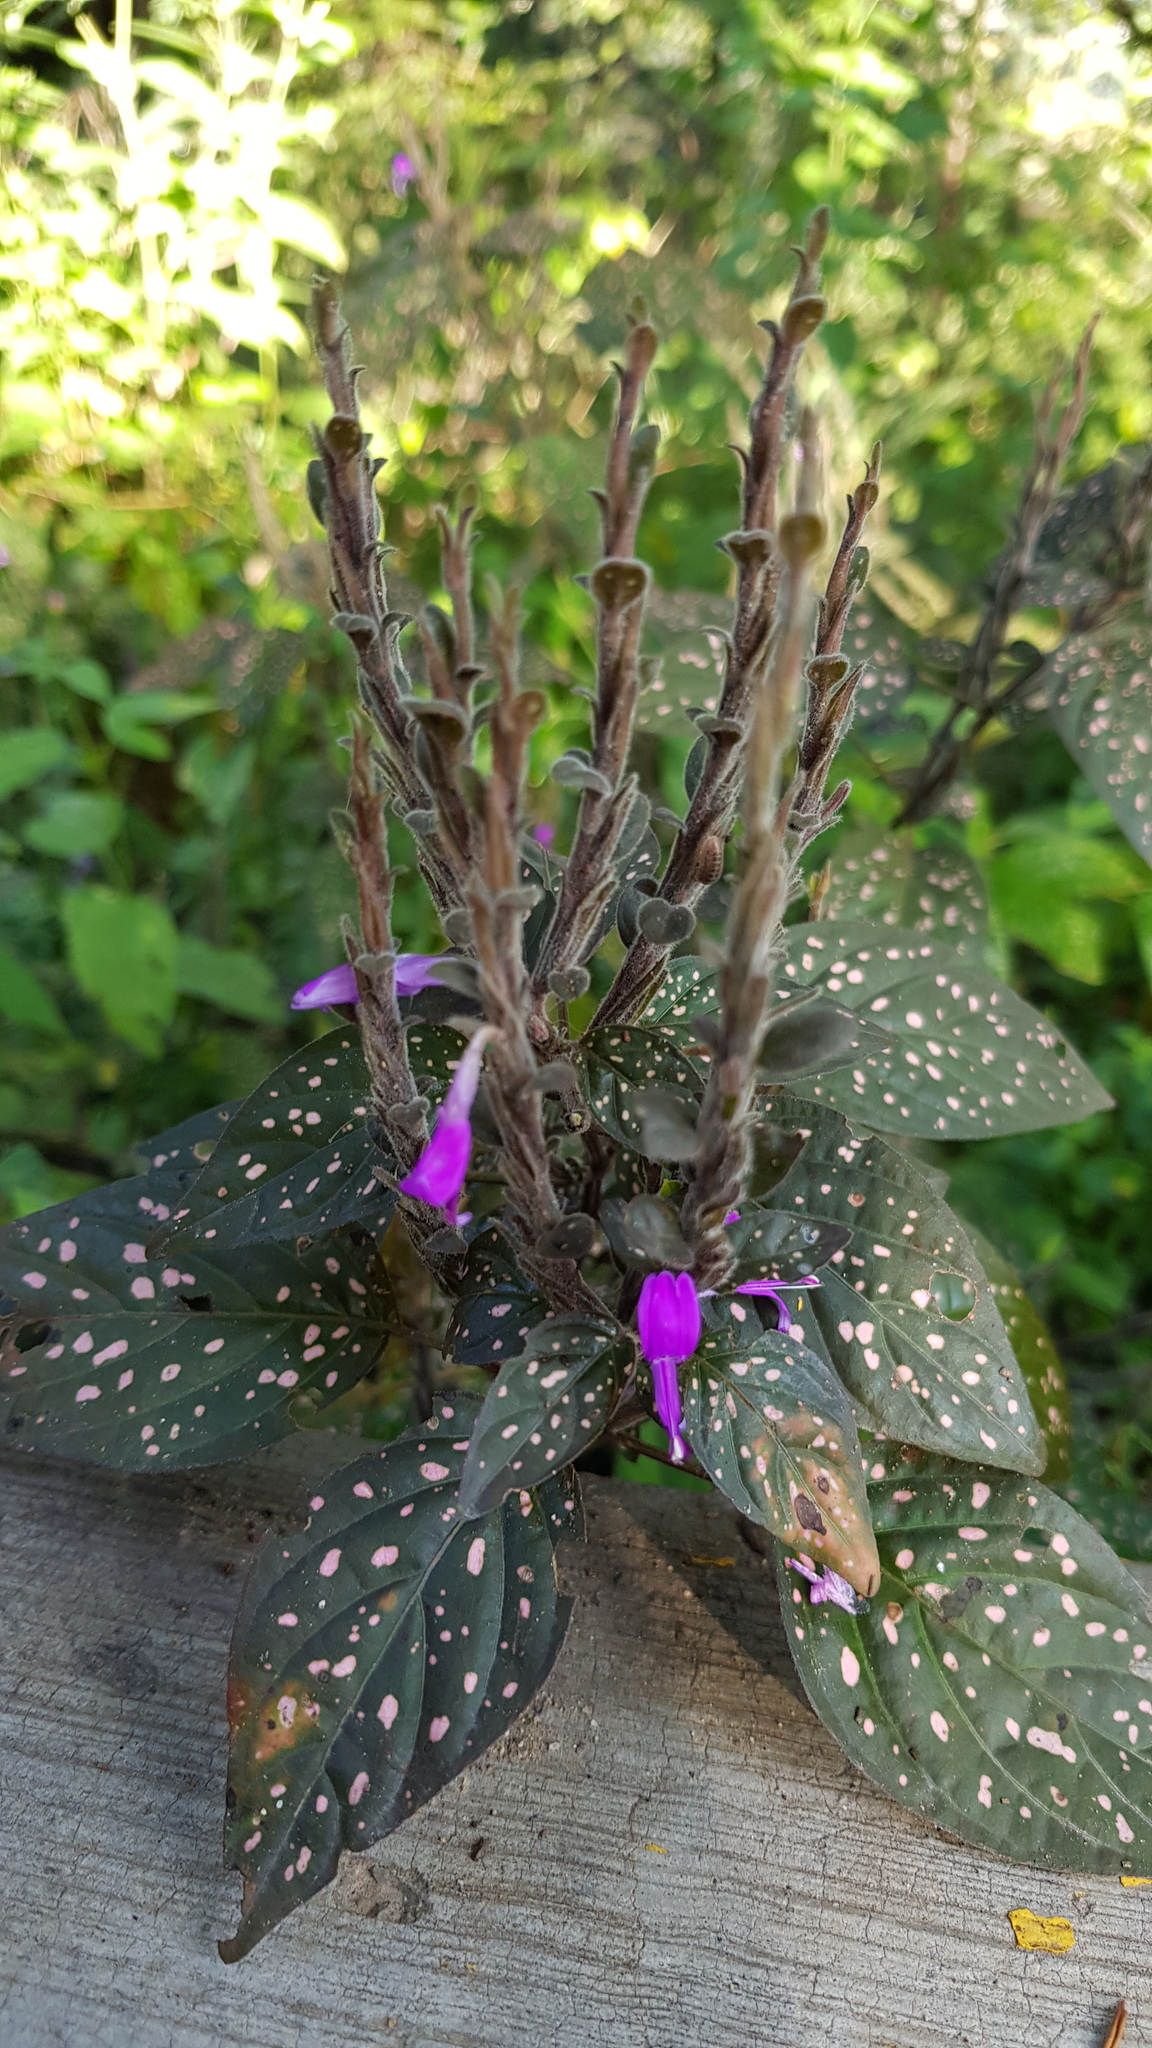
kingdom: Plantae
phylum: Tracheophyta
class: Magnoliopsida
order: Lamiales
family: Acanthaceae
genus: Hypoestes
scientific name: Hypoestes phyllostachya
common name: Polkadot-plant
